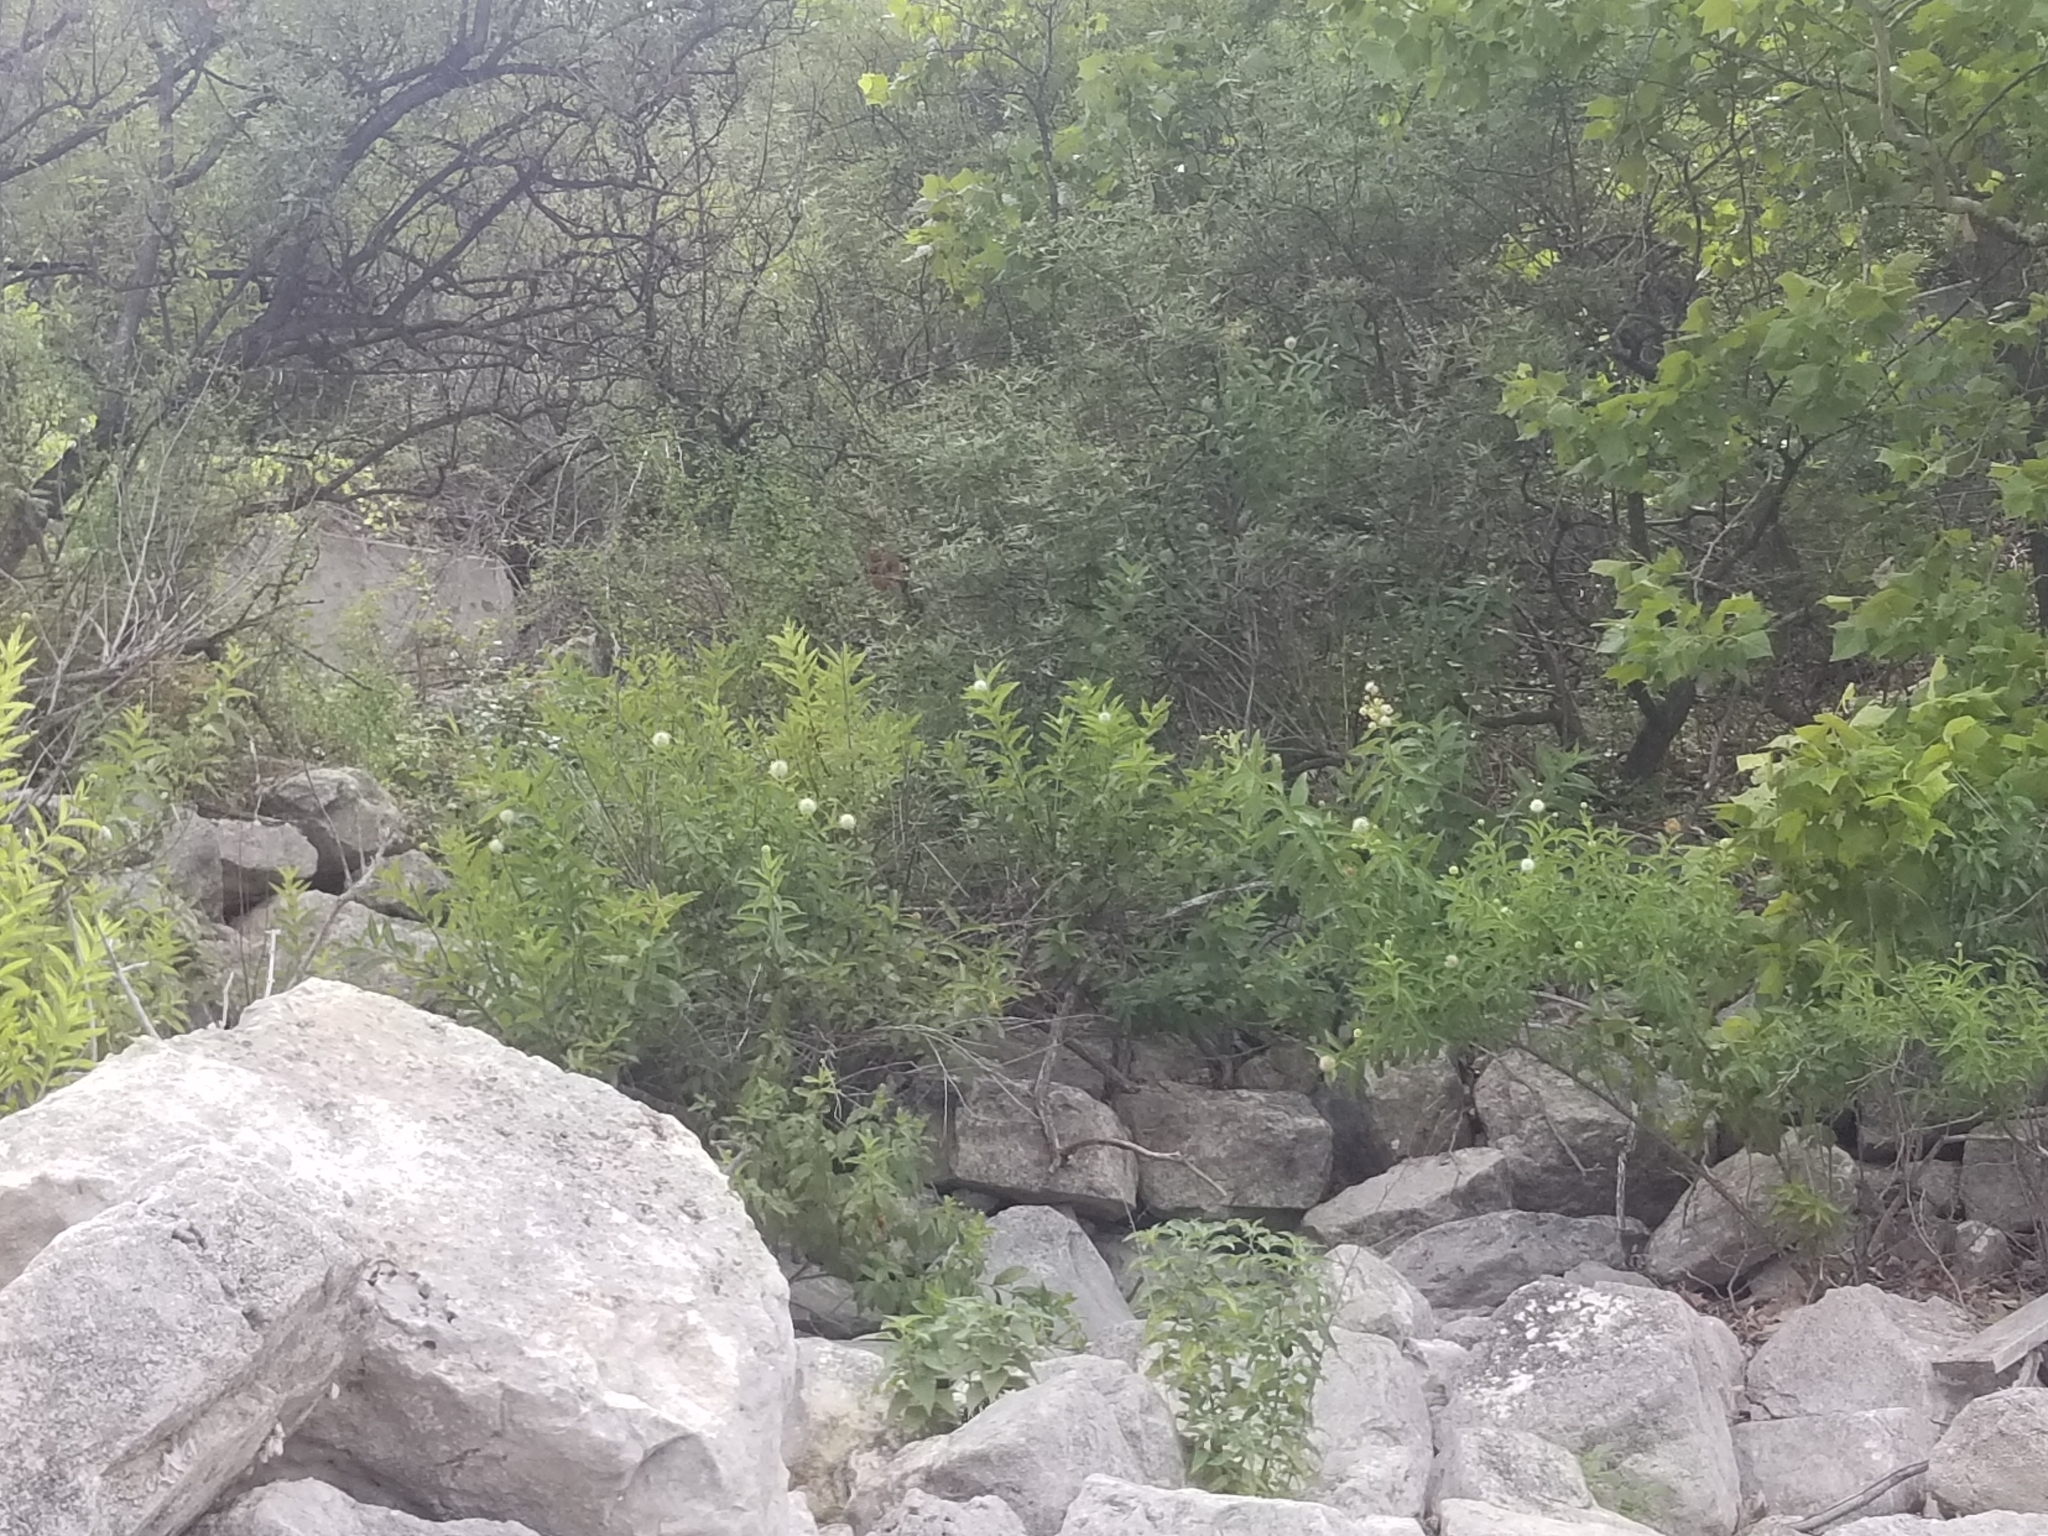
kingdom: Plantae
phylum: Tracheophyta
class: Magnoliopsida
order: Gentianales
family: Rubiaceae
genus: Cephalanthus
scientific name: Cephalanthus occidentalis
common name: Button-willow
